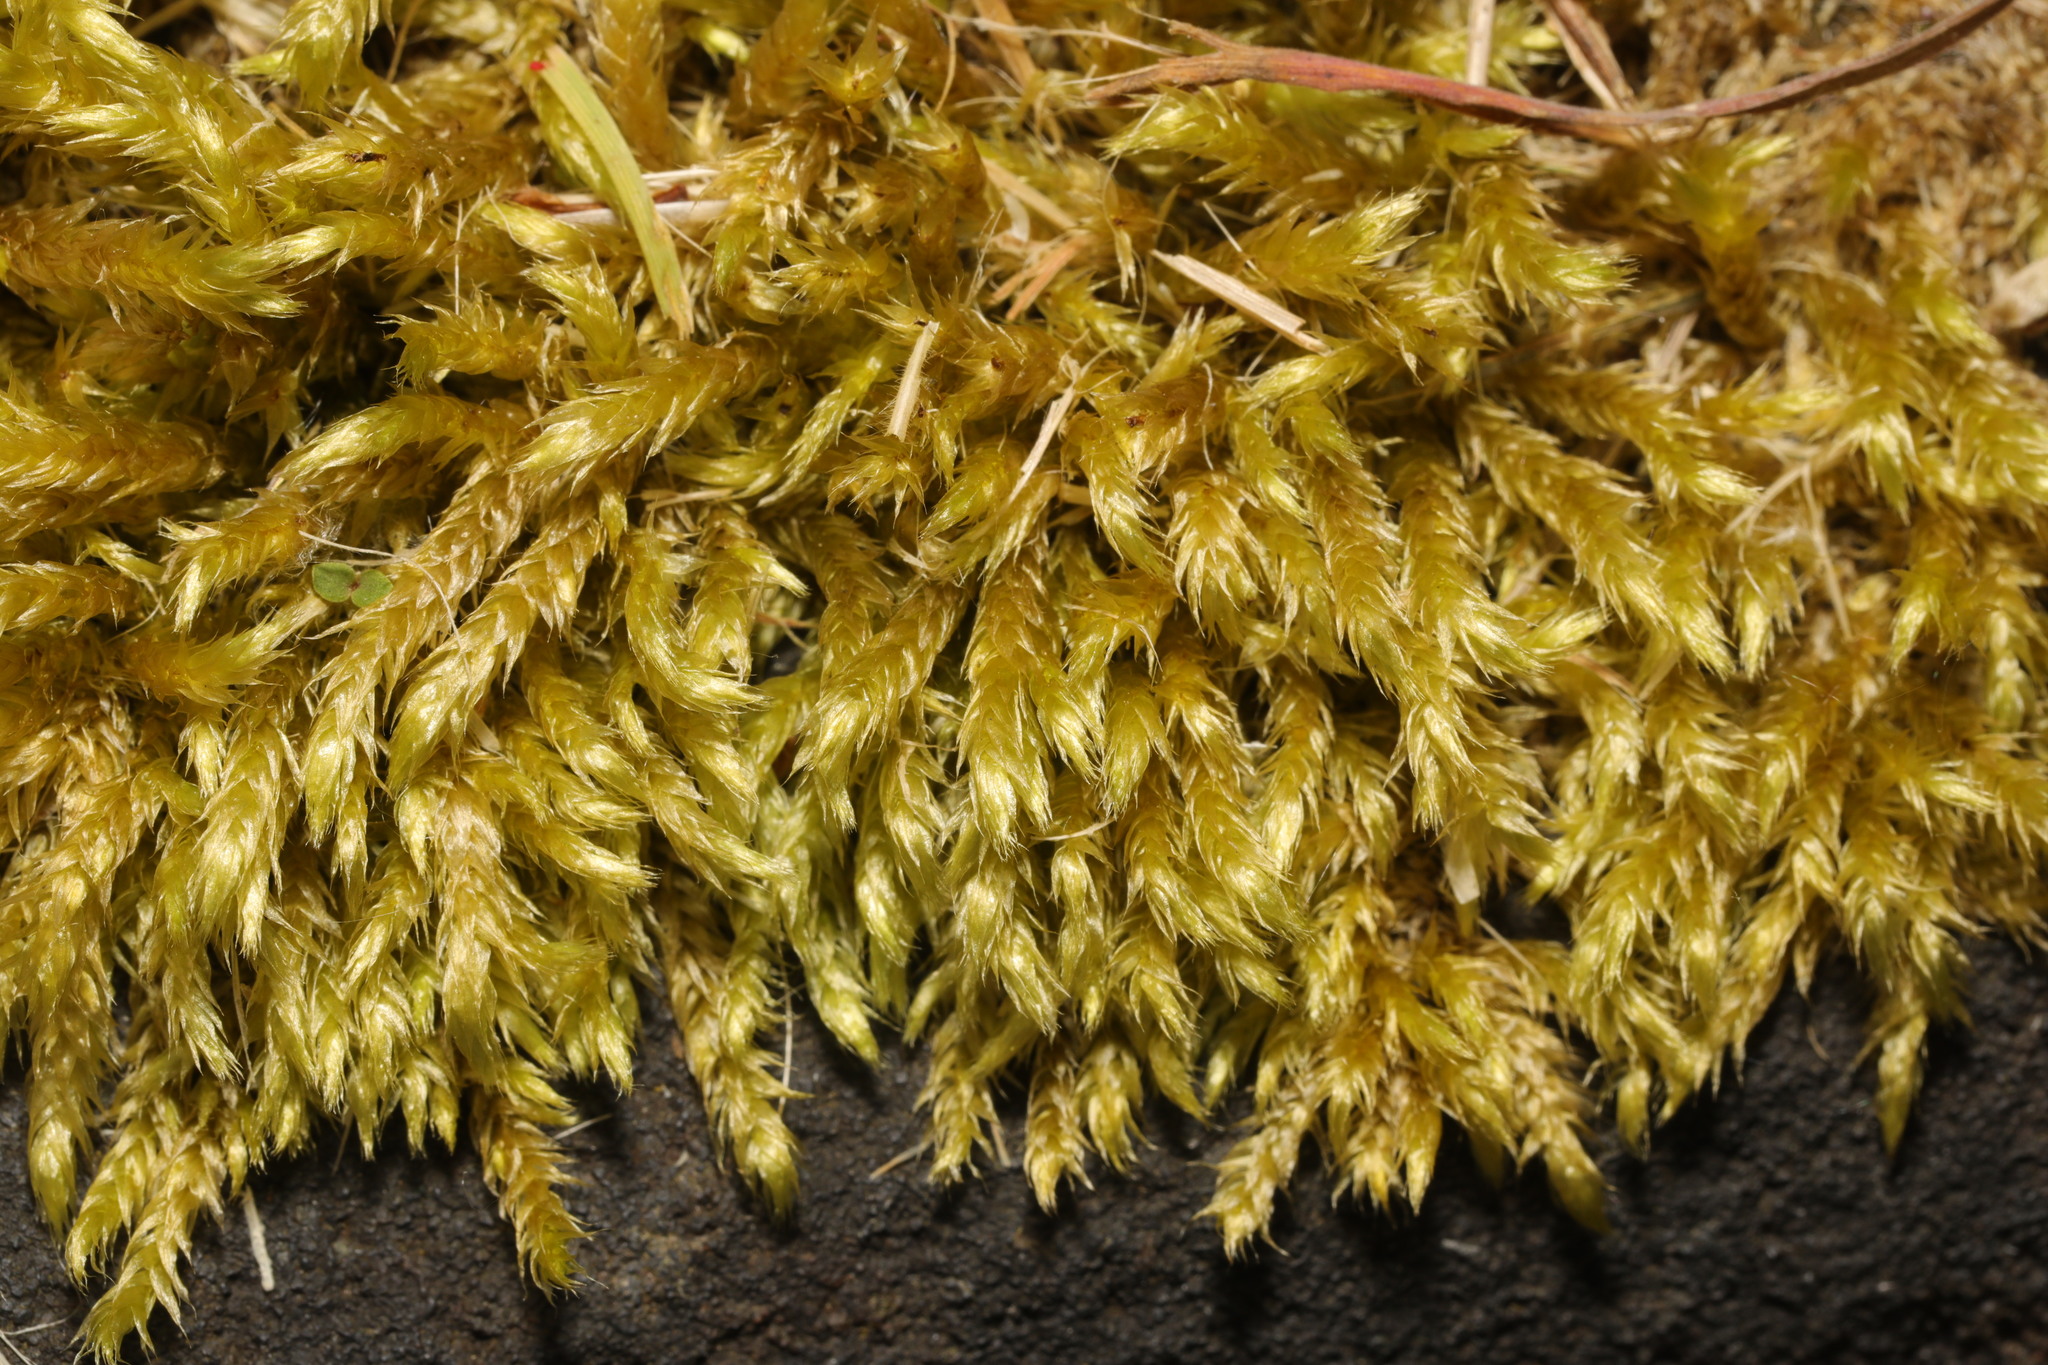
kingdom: Plantae
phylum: Bryophyta
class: Bryopsida
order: Hypnales
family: Brachytheciaceae
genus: Brachythecium
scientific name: Brachythecium rutabulum
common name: Rough-stalked feather-moss
